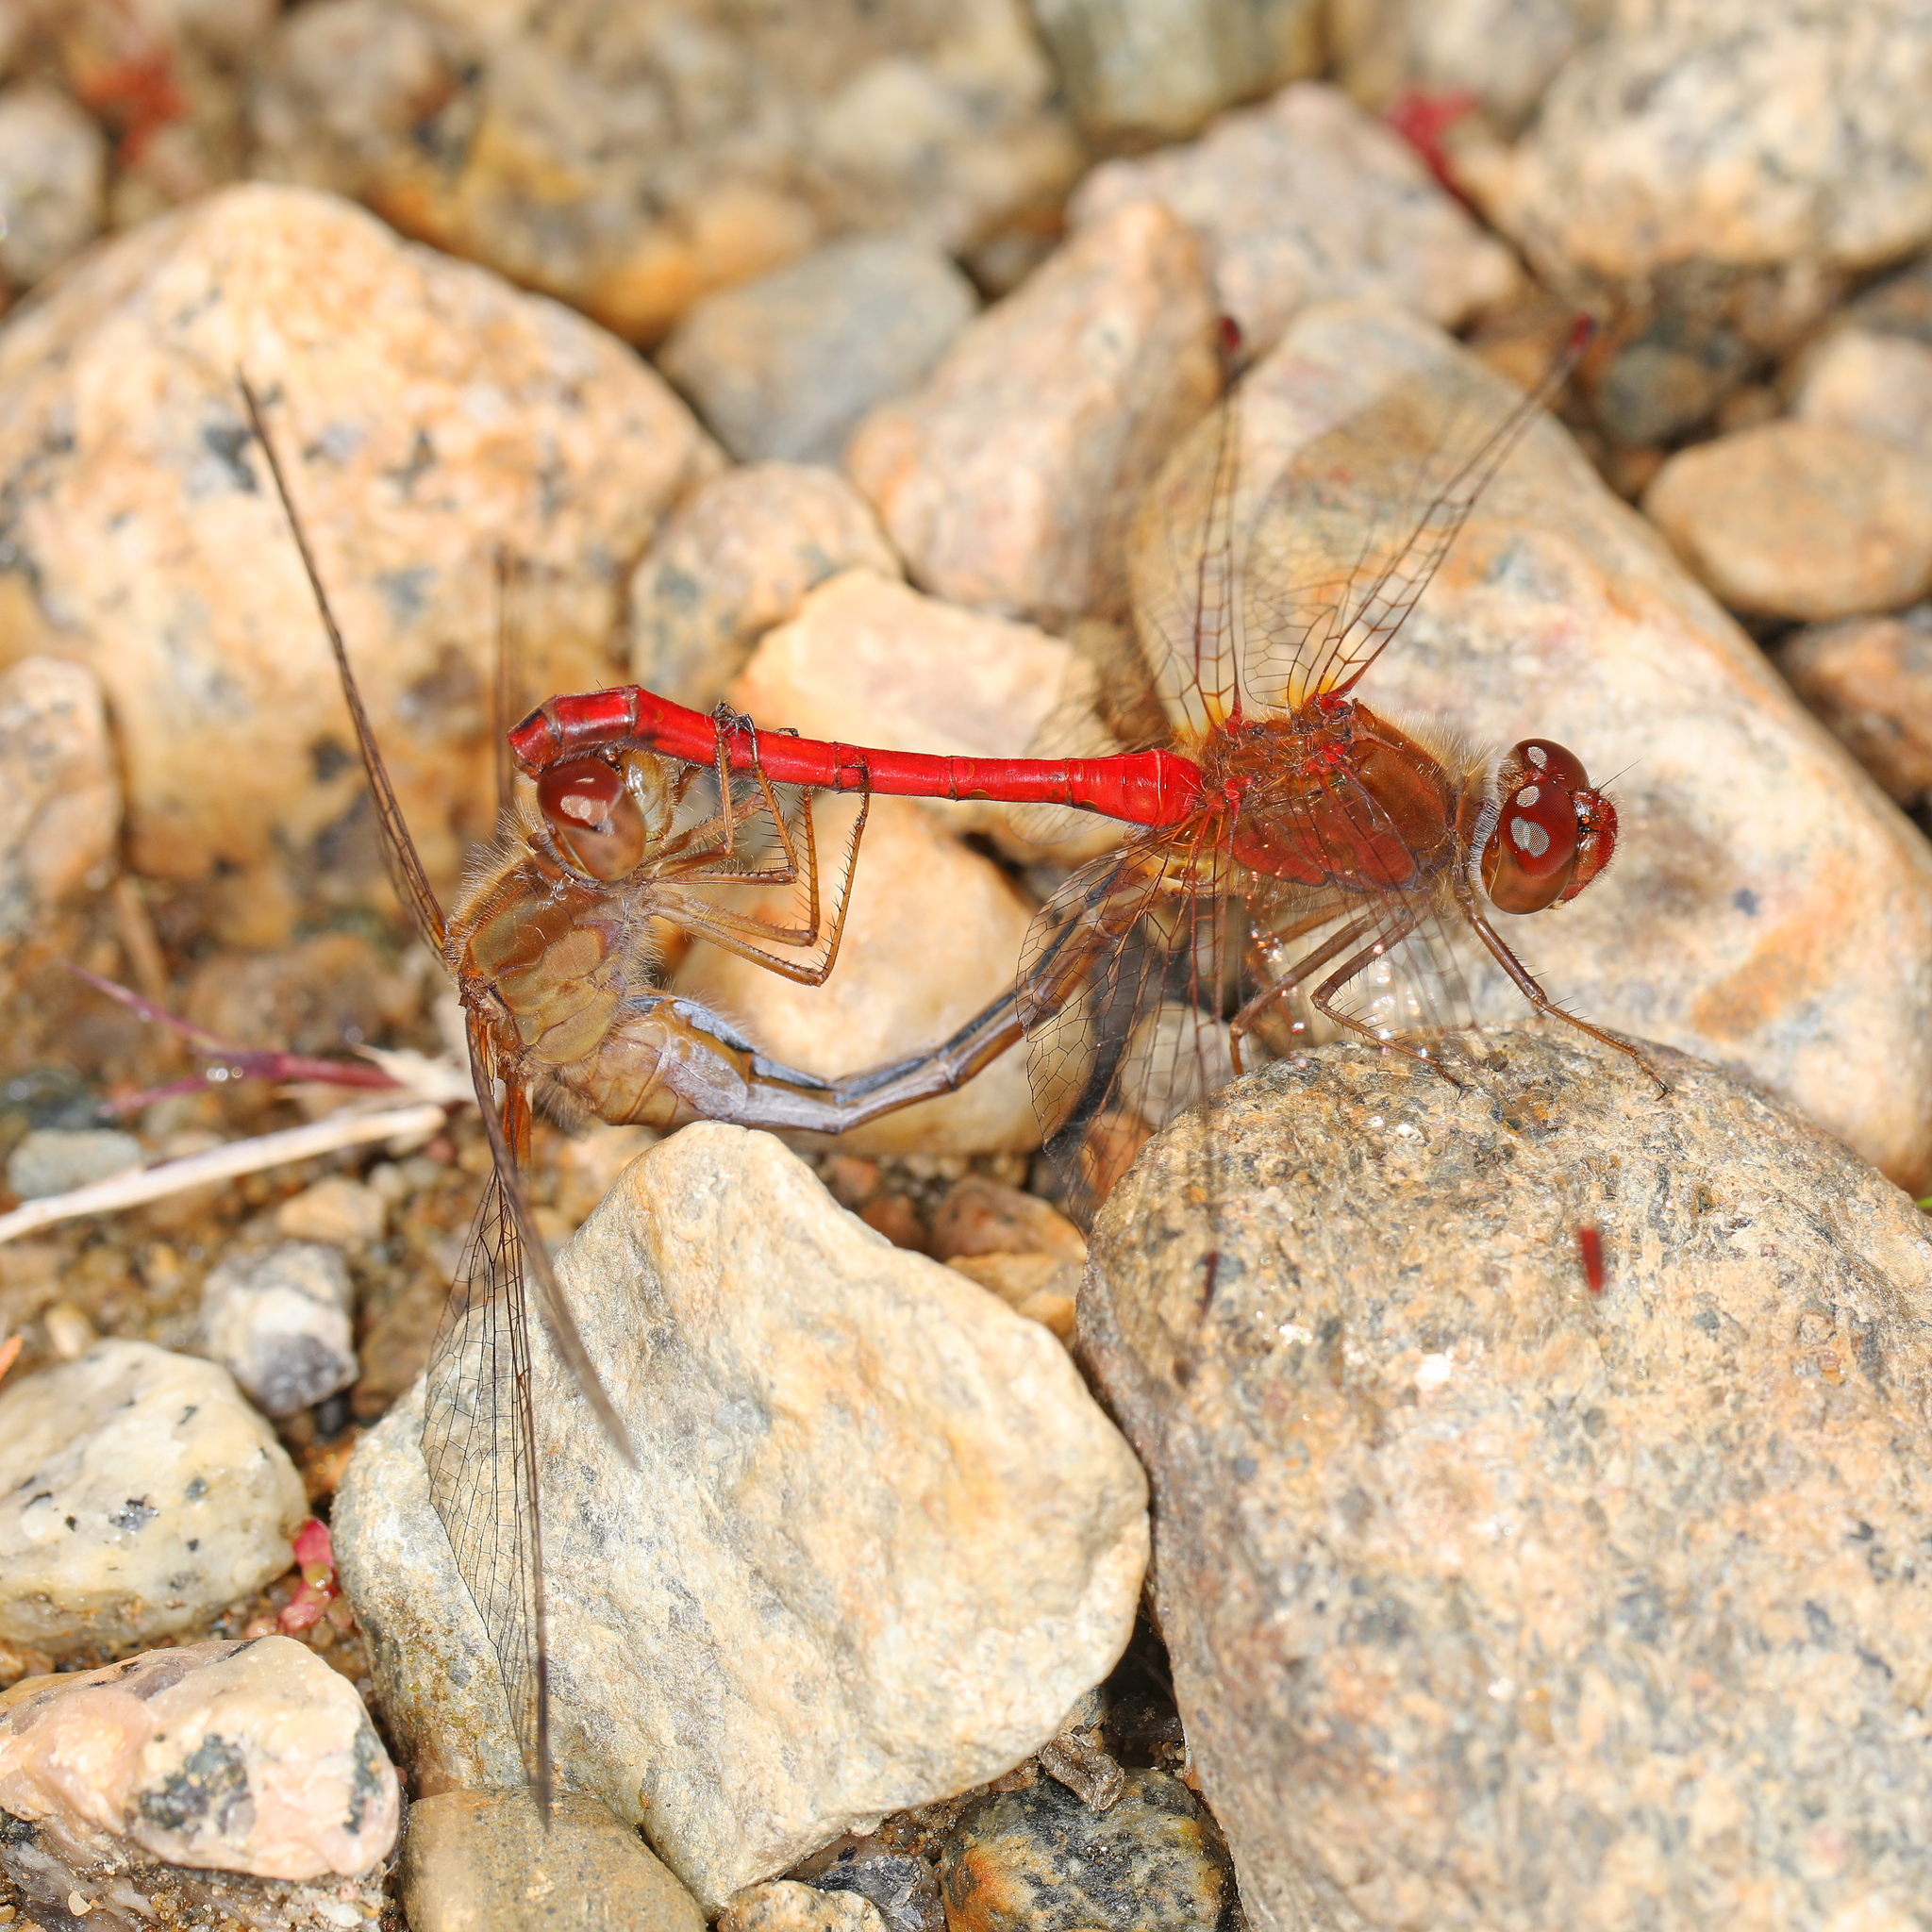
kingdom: Animalia
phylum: Arthropoda
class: Insecta
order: Odonata
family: Libellulidae
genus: Sympetrum
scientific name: Sympetrum vicinum
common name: Autumn meadowhawk
